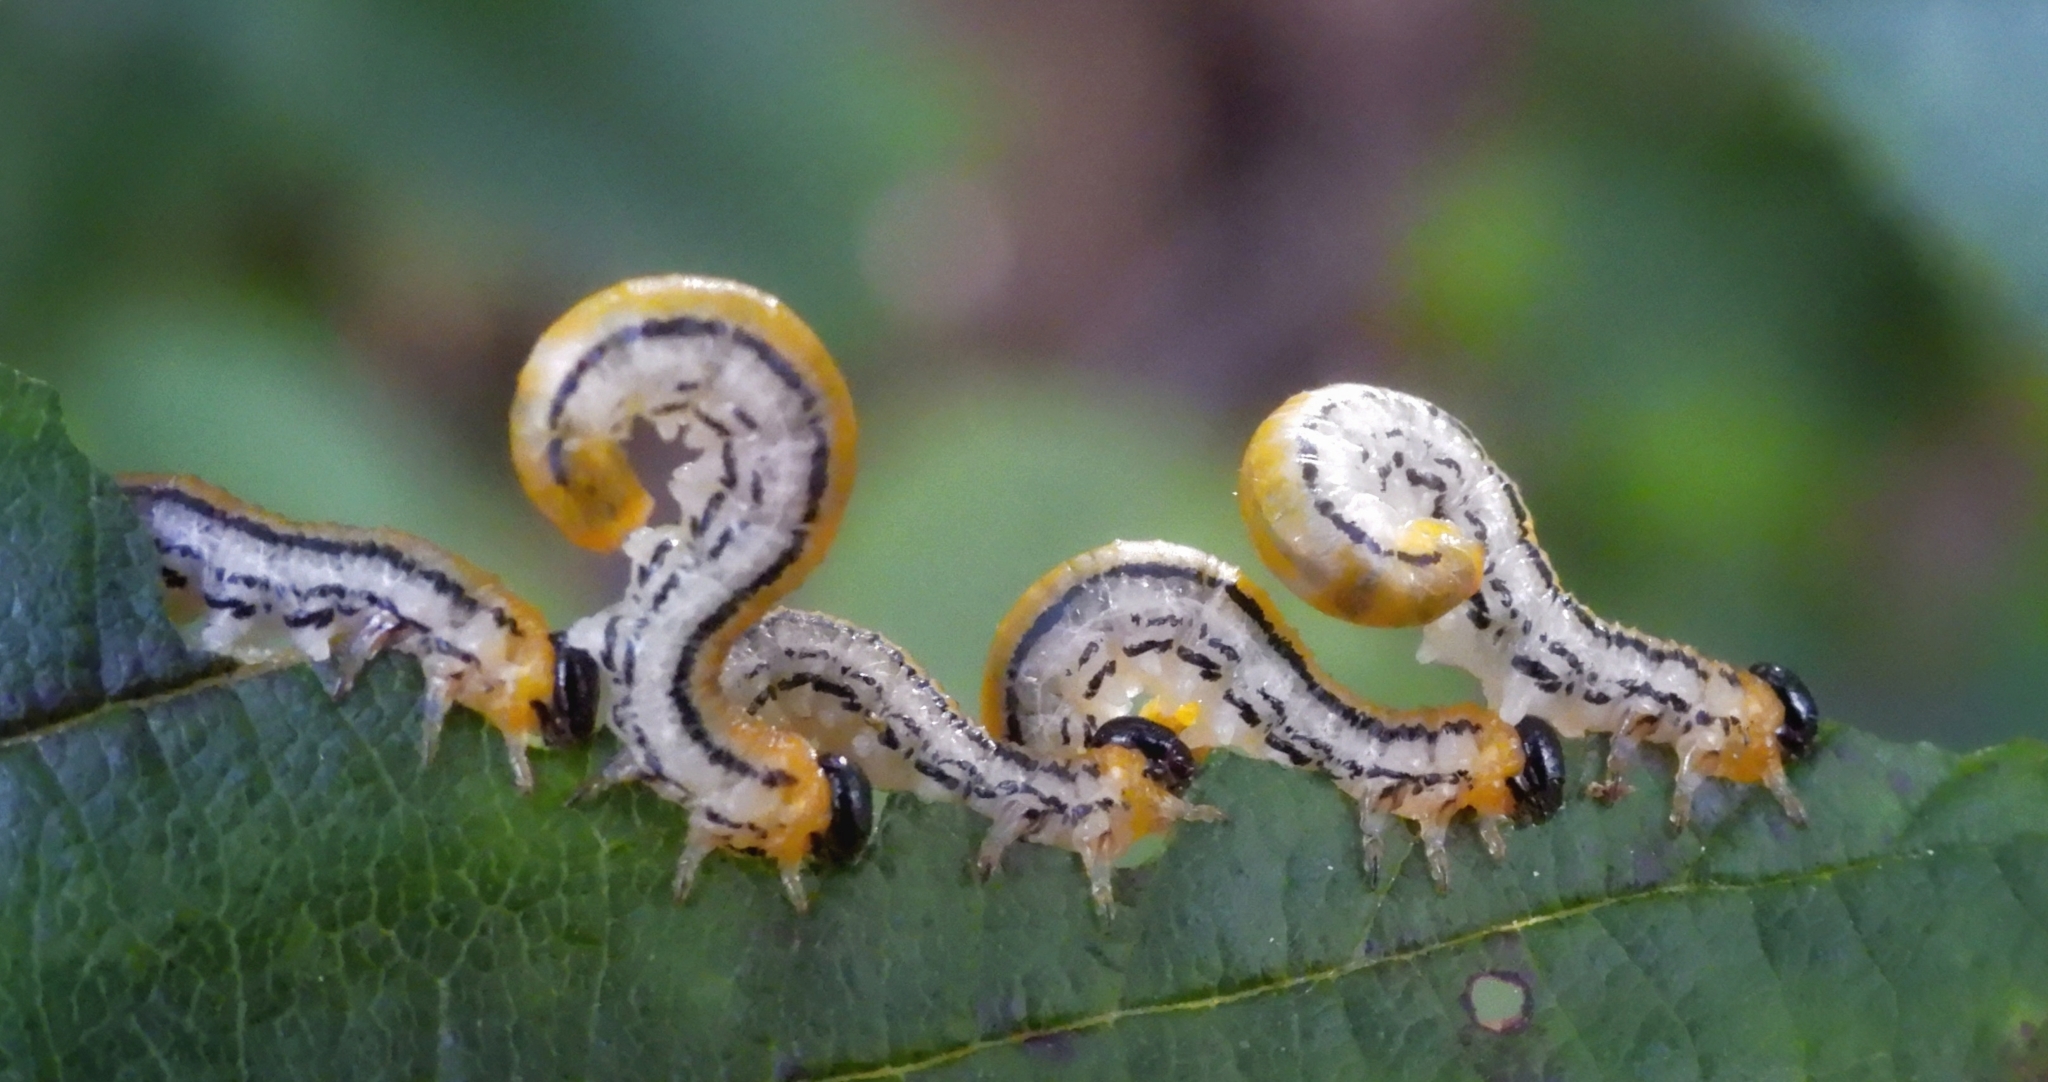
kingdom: Animalia
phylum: Arthropoda
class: Insecta
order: Hymenoptera
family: Tenthredinidae
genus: Hemichroa
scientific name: Hemichroa crocea
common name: Striped alder sawfly
